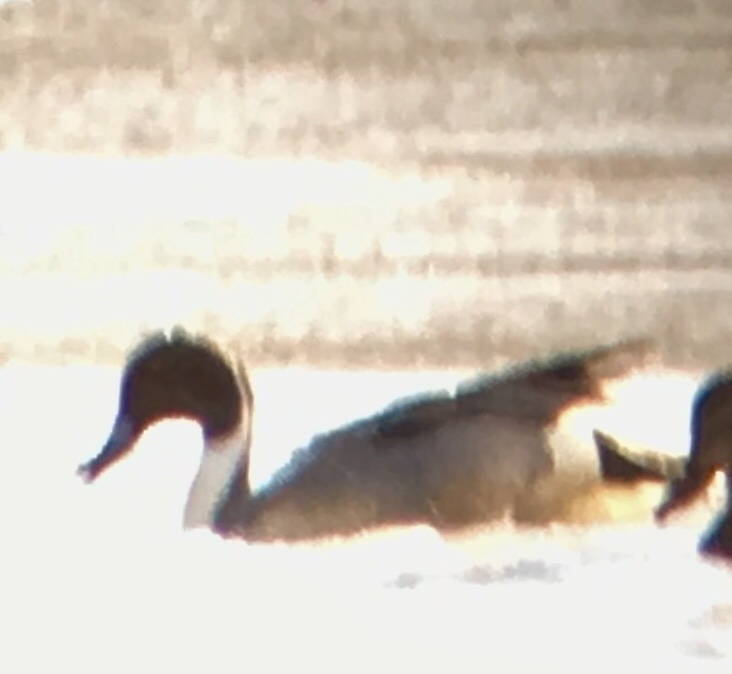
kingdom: Animalia
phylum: Chordata
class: Aves
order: Anseriformes
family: Anatidae
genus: Anas
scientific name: Anas acuta
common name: Northern pintail
